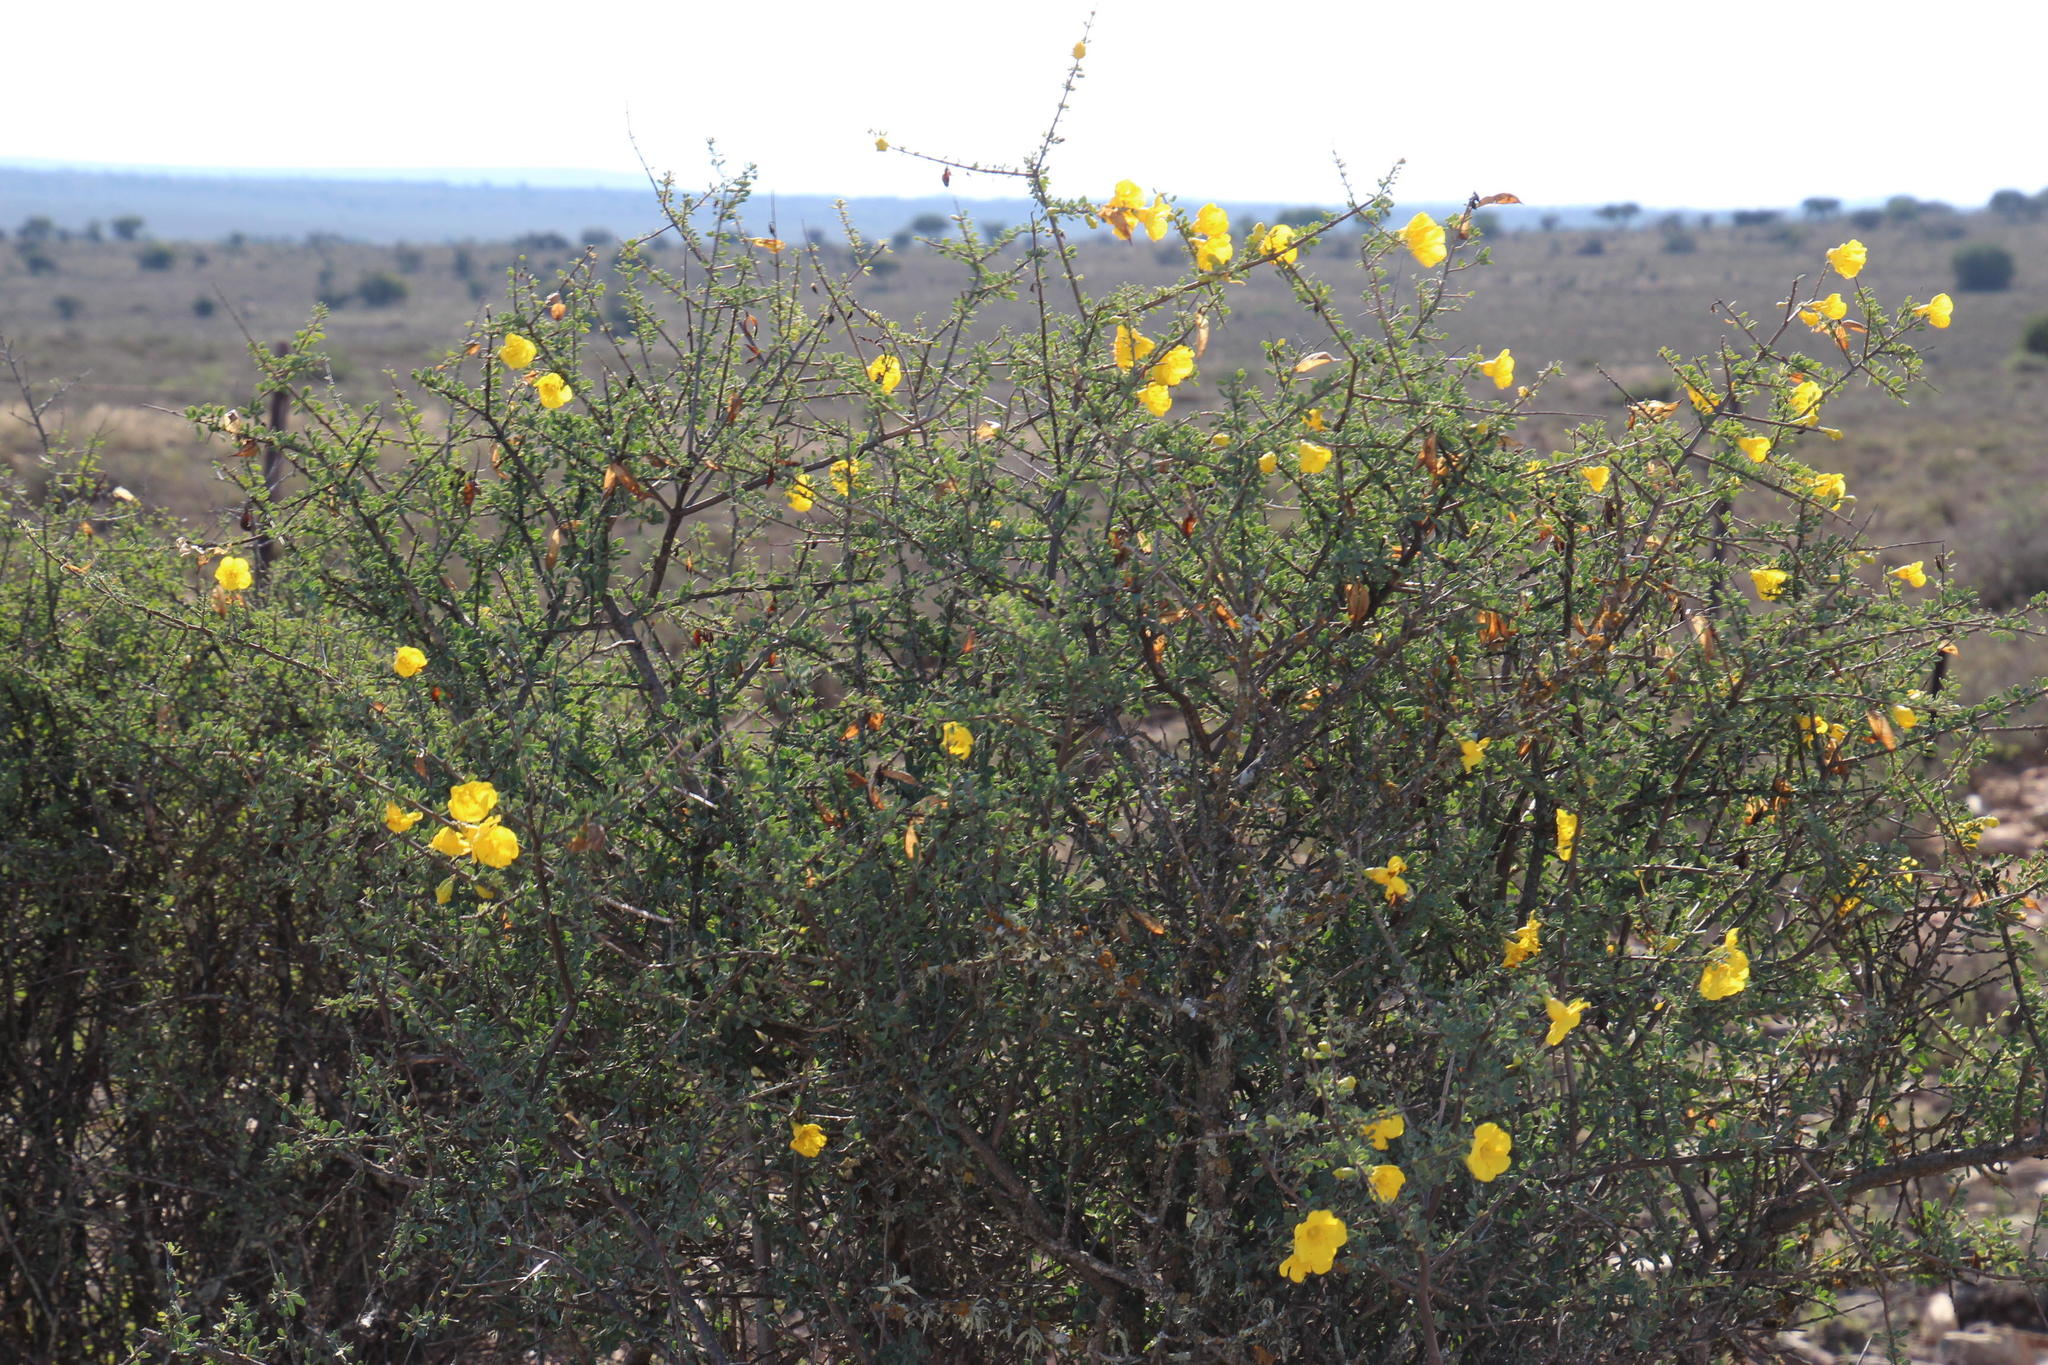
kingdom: Plantae
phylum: Tracheophyta
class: Magnoliopsida
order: Lamiales
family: Bignoniaceae
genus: Rhigozum
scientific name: Rhigozum obovatum
